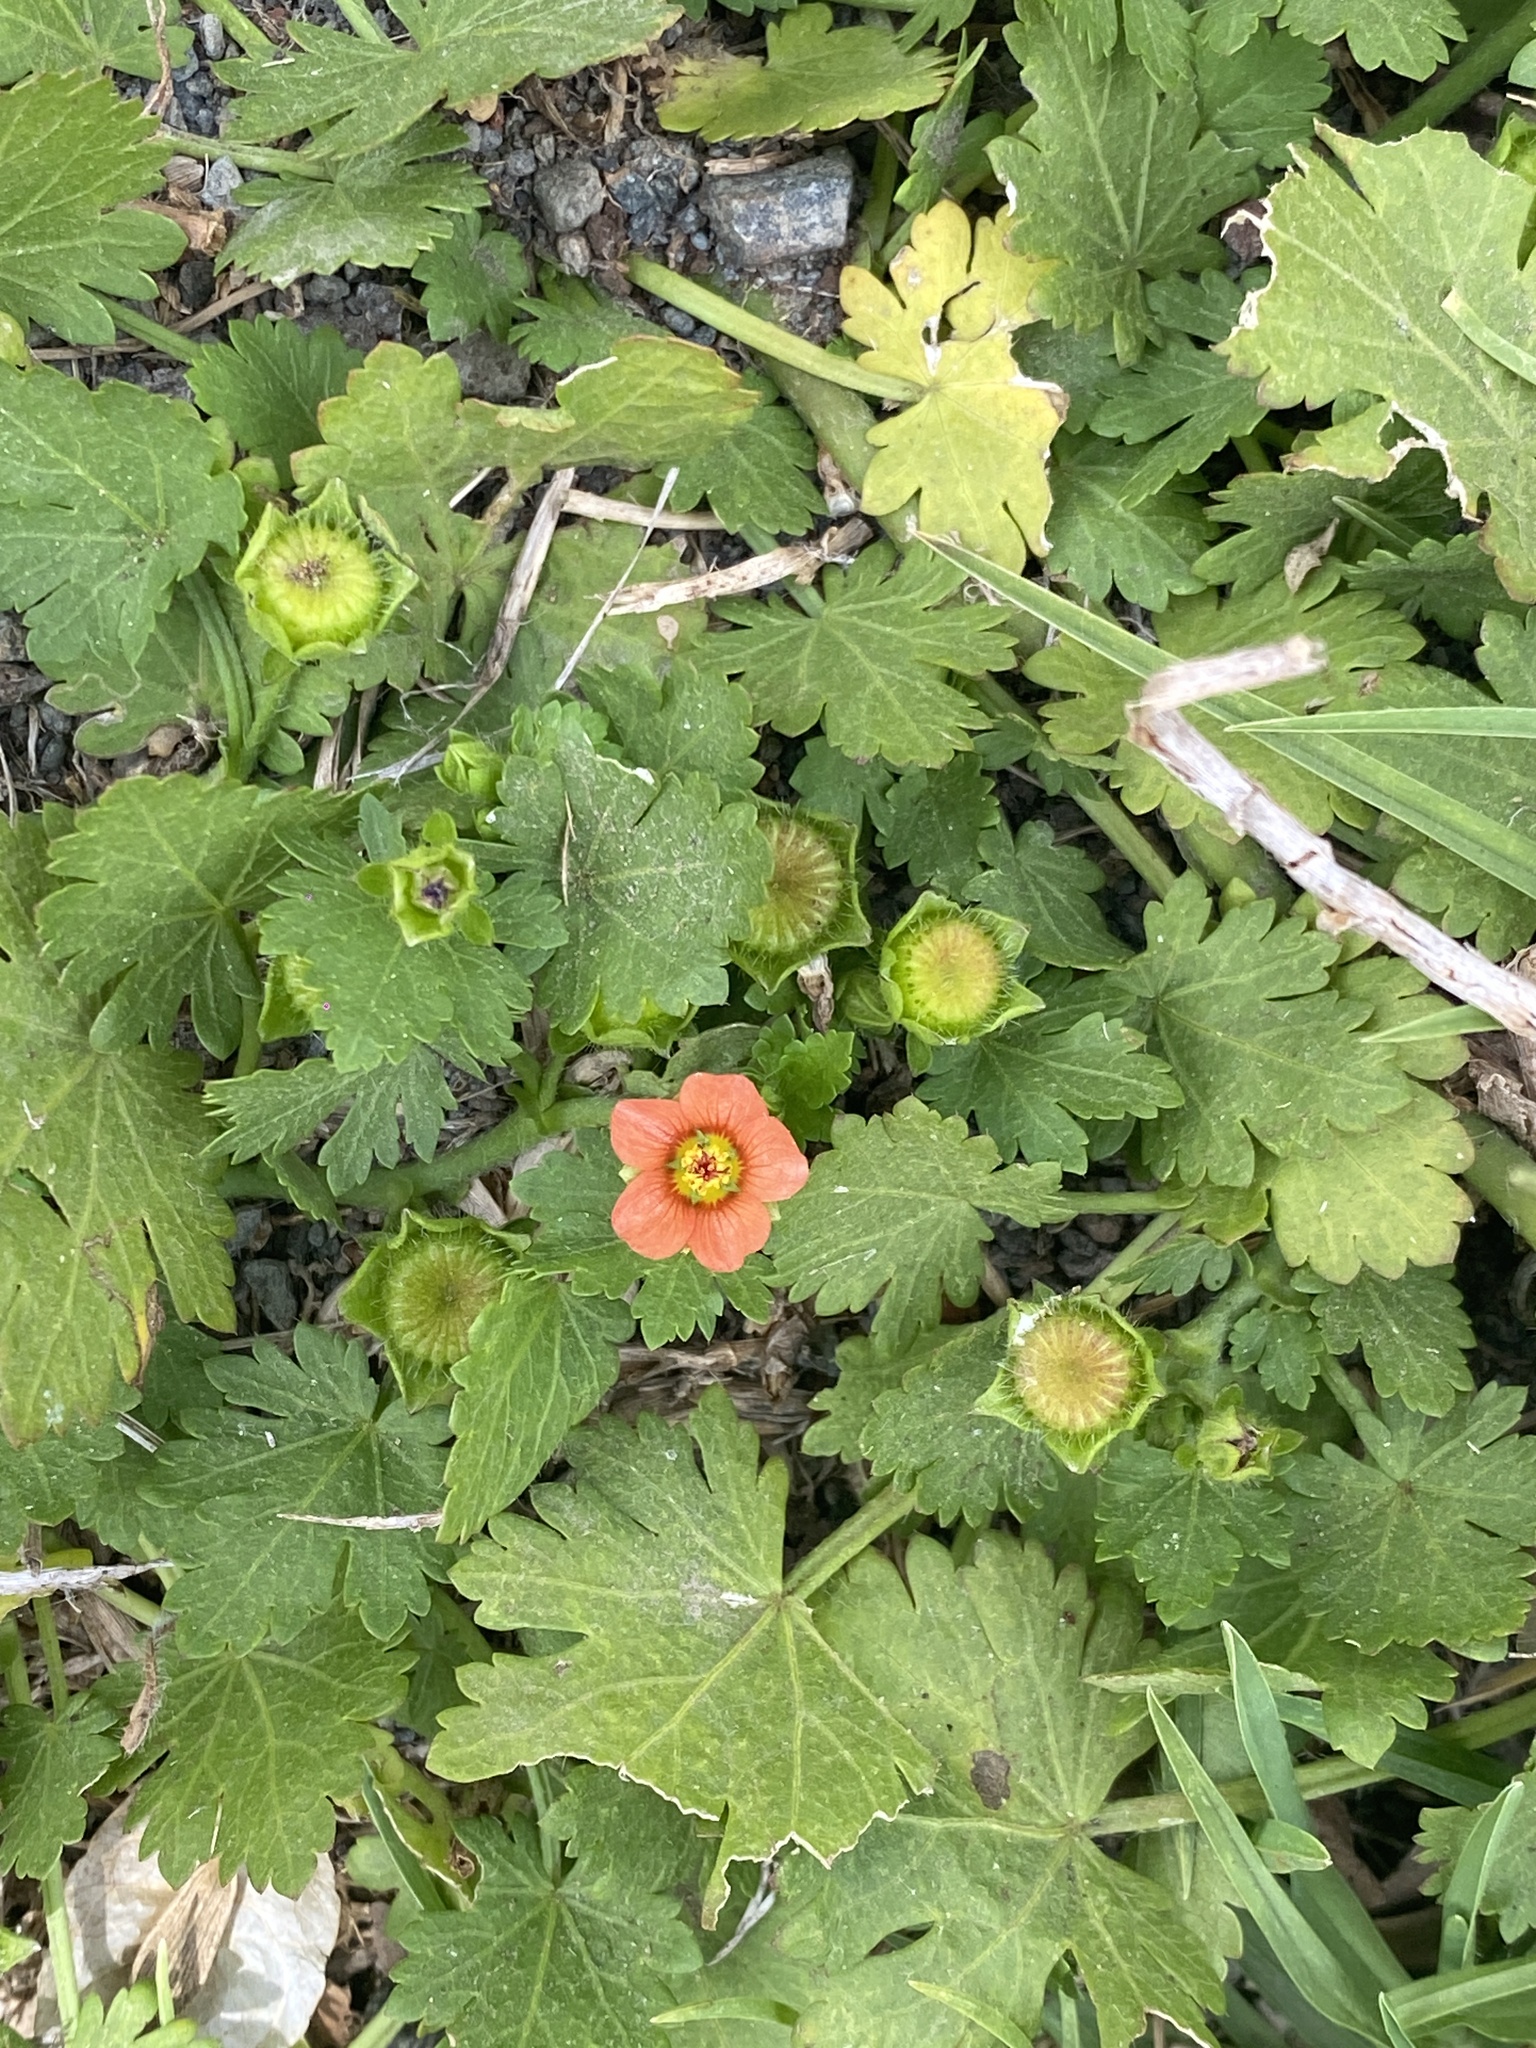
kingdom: Plantae
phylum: Tracheophyta
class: Magnoliopsida
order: Malvales
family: Malvaceae
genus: Modiola
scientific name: Modiola caroliniana
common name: Carolina bristlemallow
